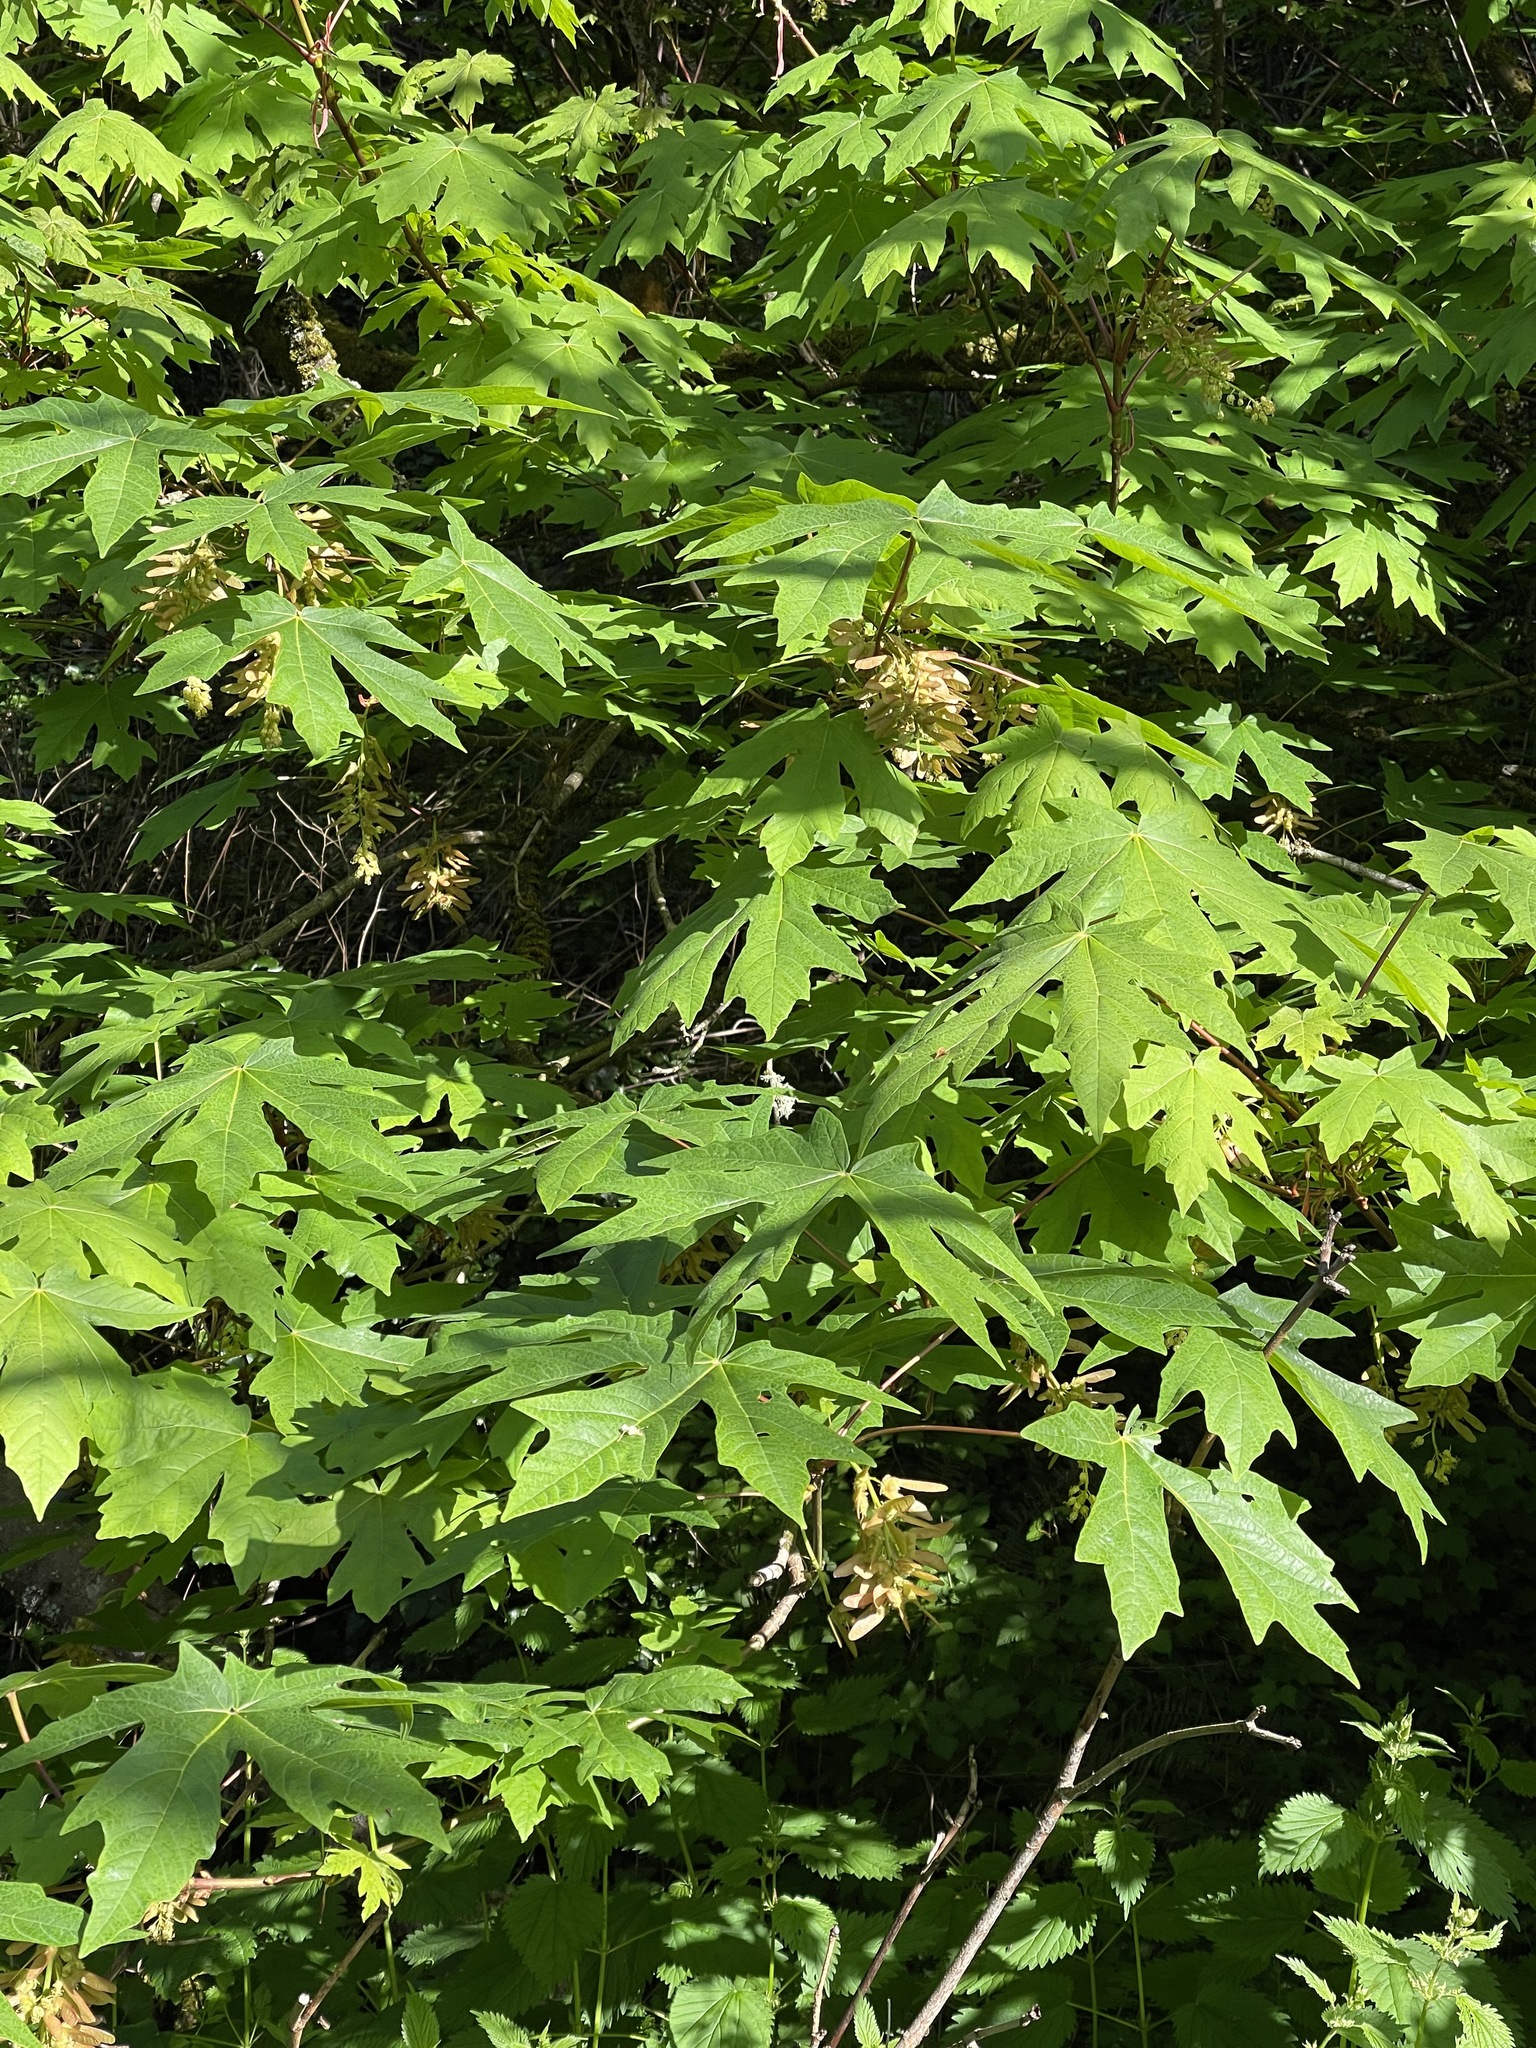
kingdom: Plantae
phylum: Tracheophyta
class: Magnoliopsida
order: Sapindales
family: Sapindaceae
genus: Acer
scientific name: Acer macrophyllum
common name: Oregon maple
